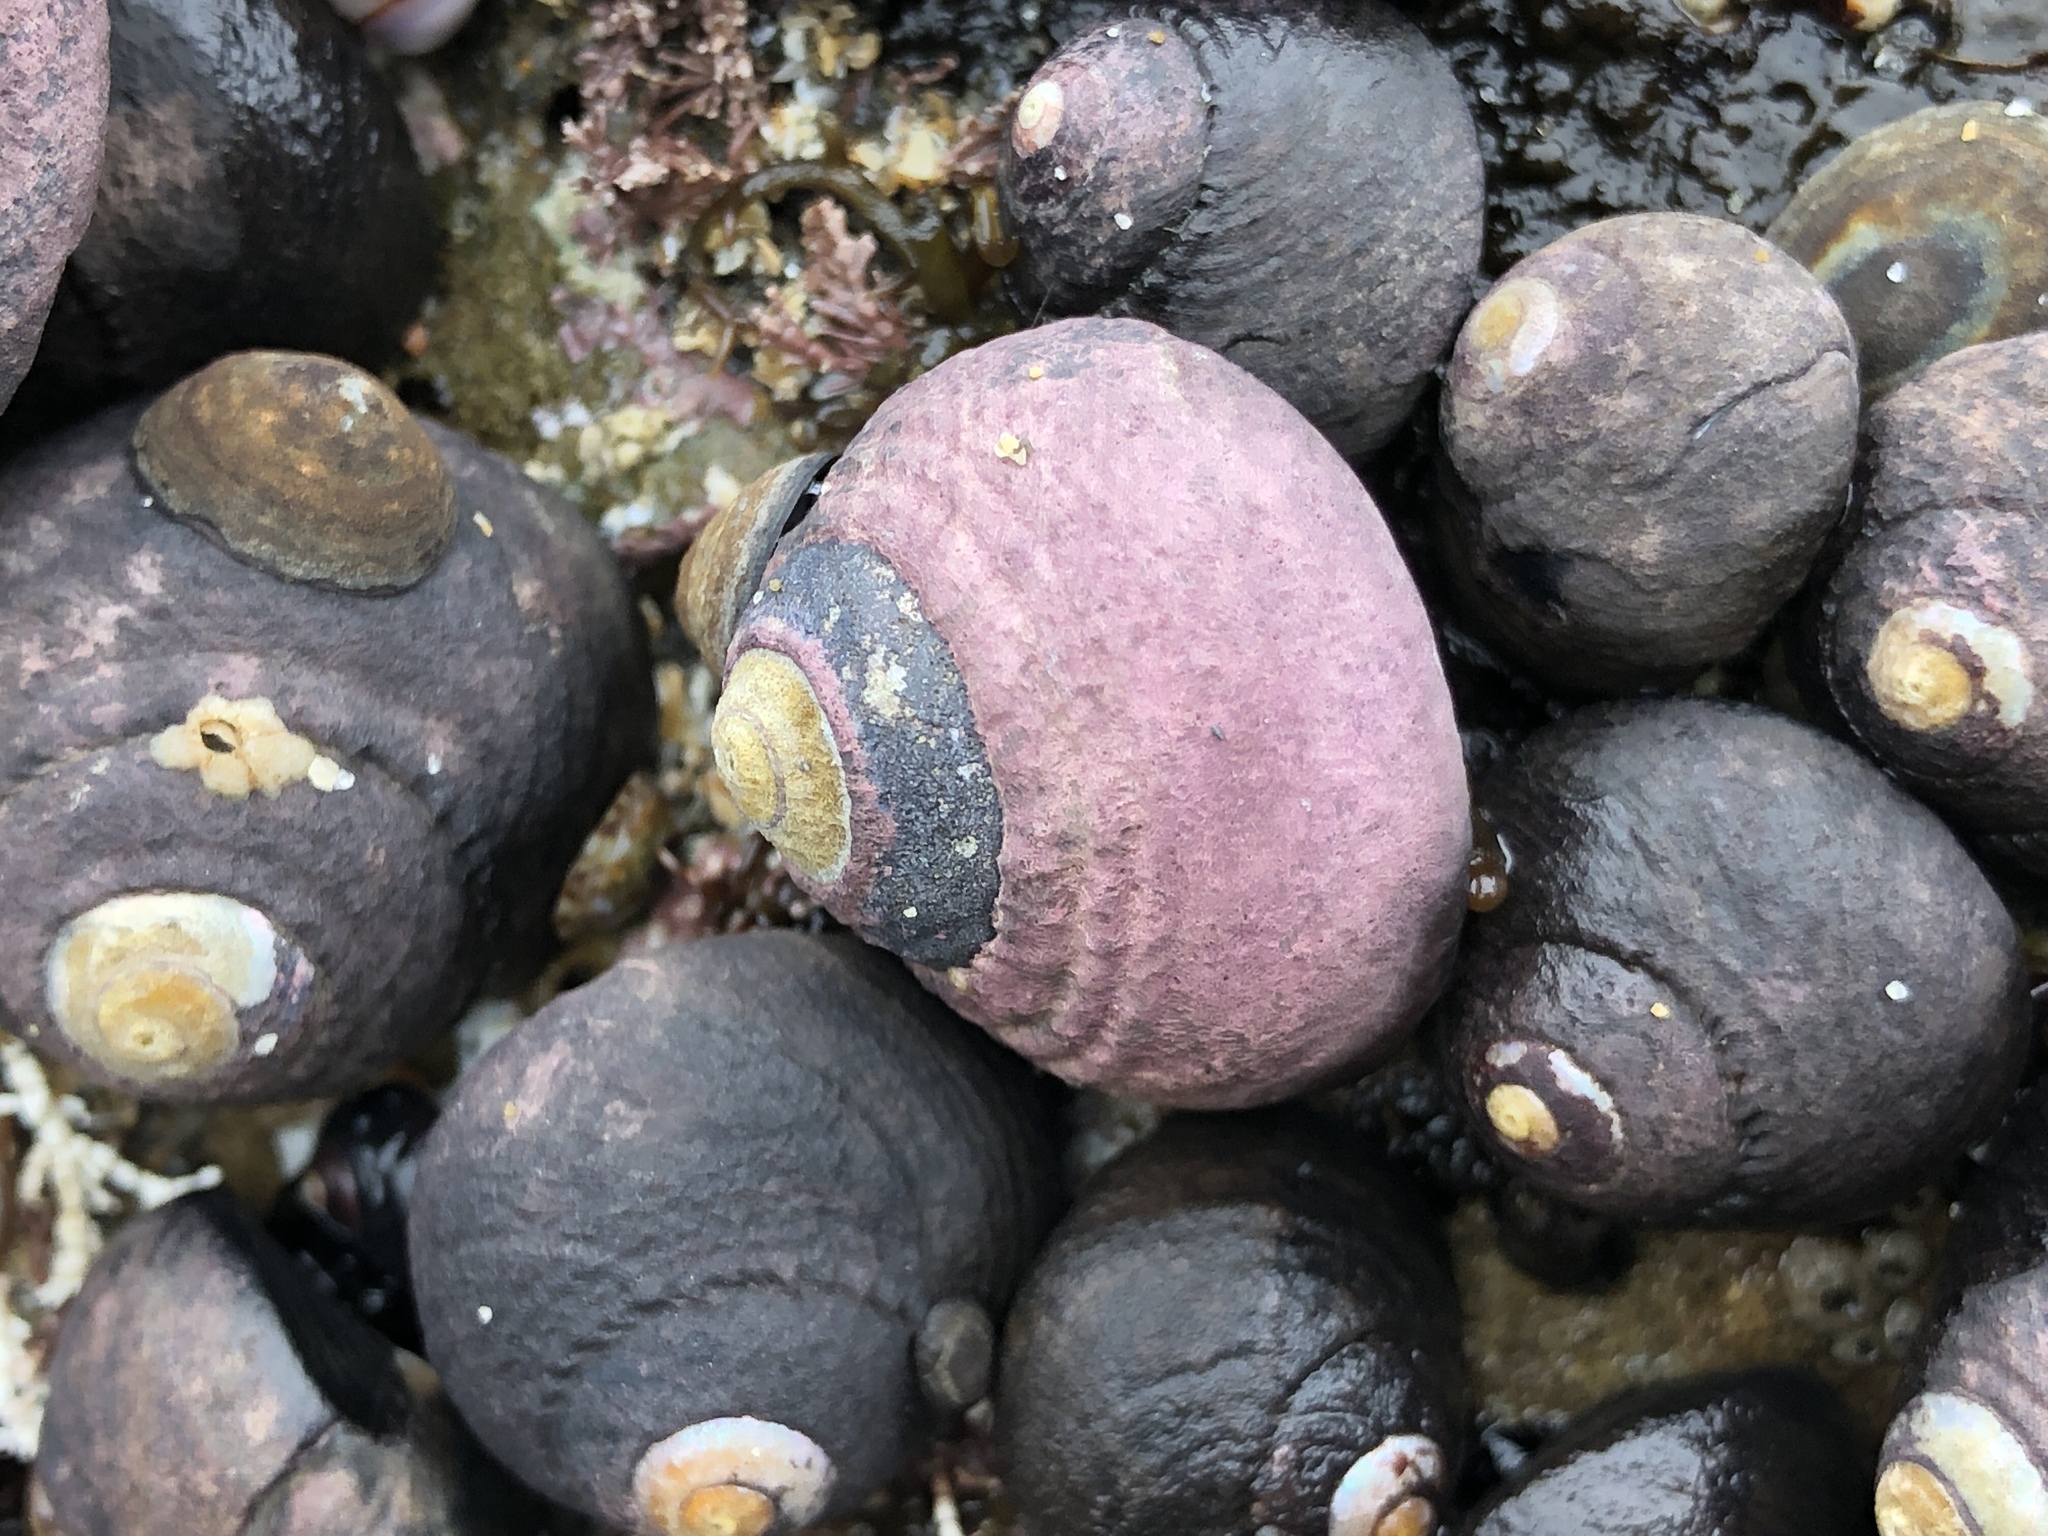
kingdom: Animalia
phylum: Mollusca
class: Gastropoda
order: Trochida
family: Tegulidae
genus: Tegula
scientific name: Tegula funebralis
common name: Black tegula
